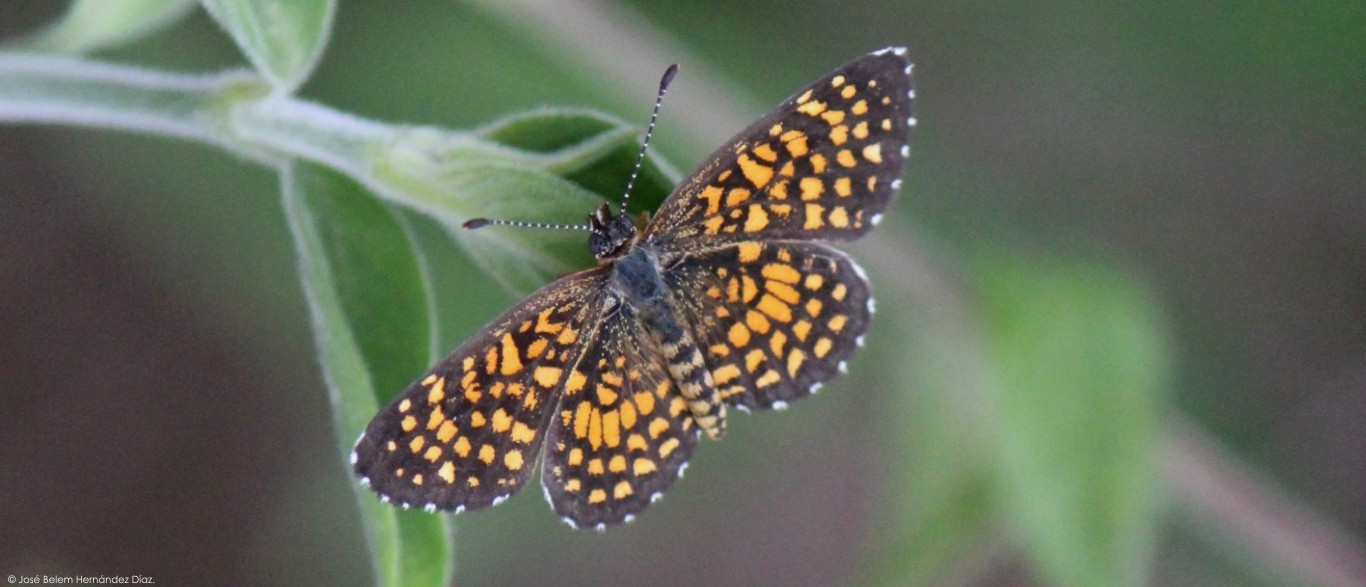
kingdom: Animalia
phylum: Arthropoda
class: Insecta
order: Lepidoptera
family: Nymphalidae
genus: Texola
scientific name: Texola elada
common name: Elada checkerspot
